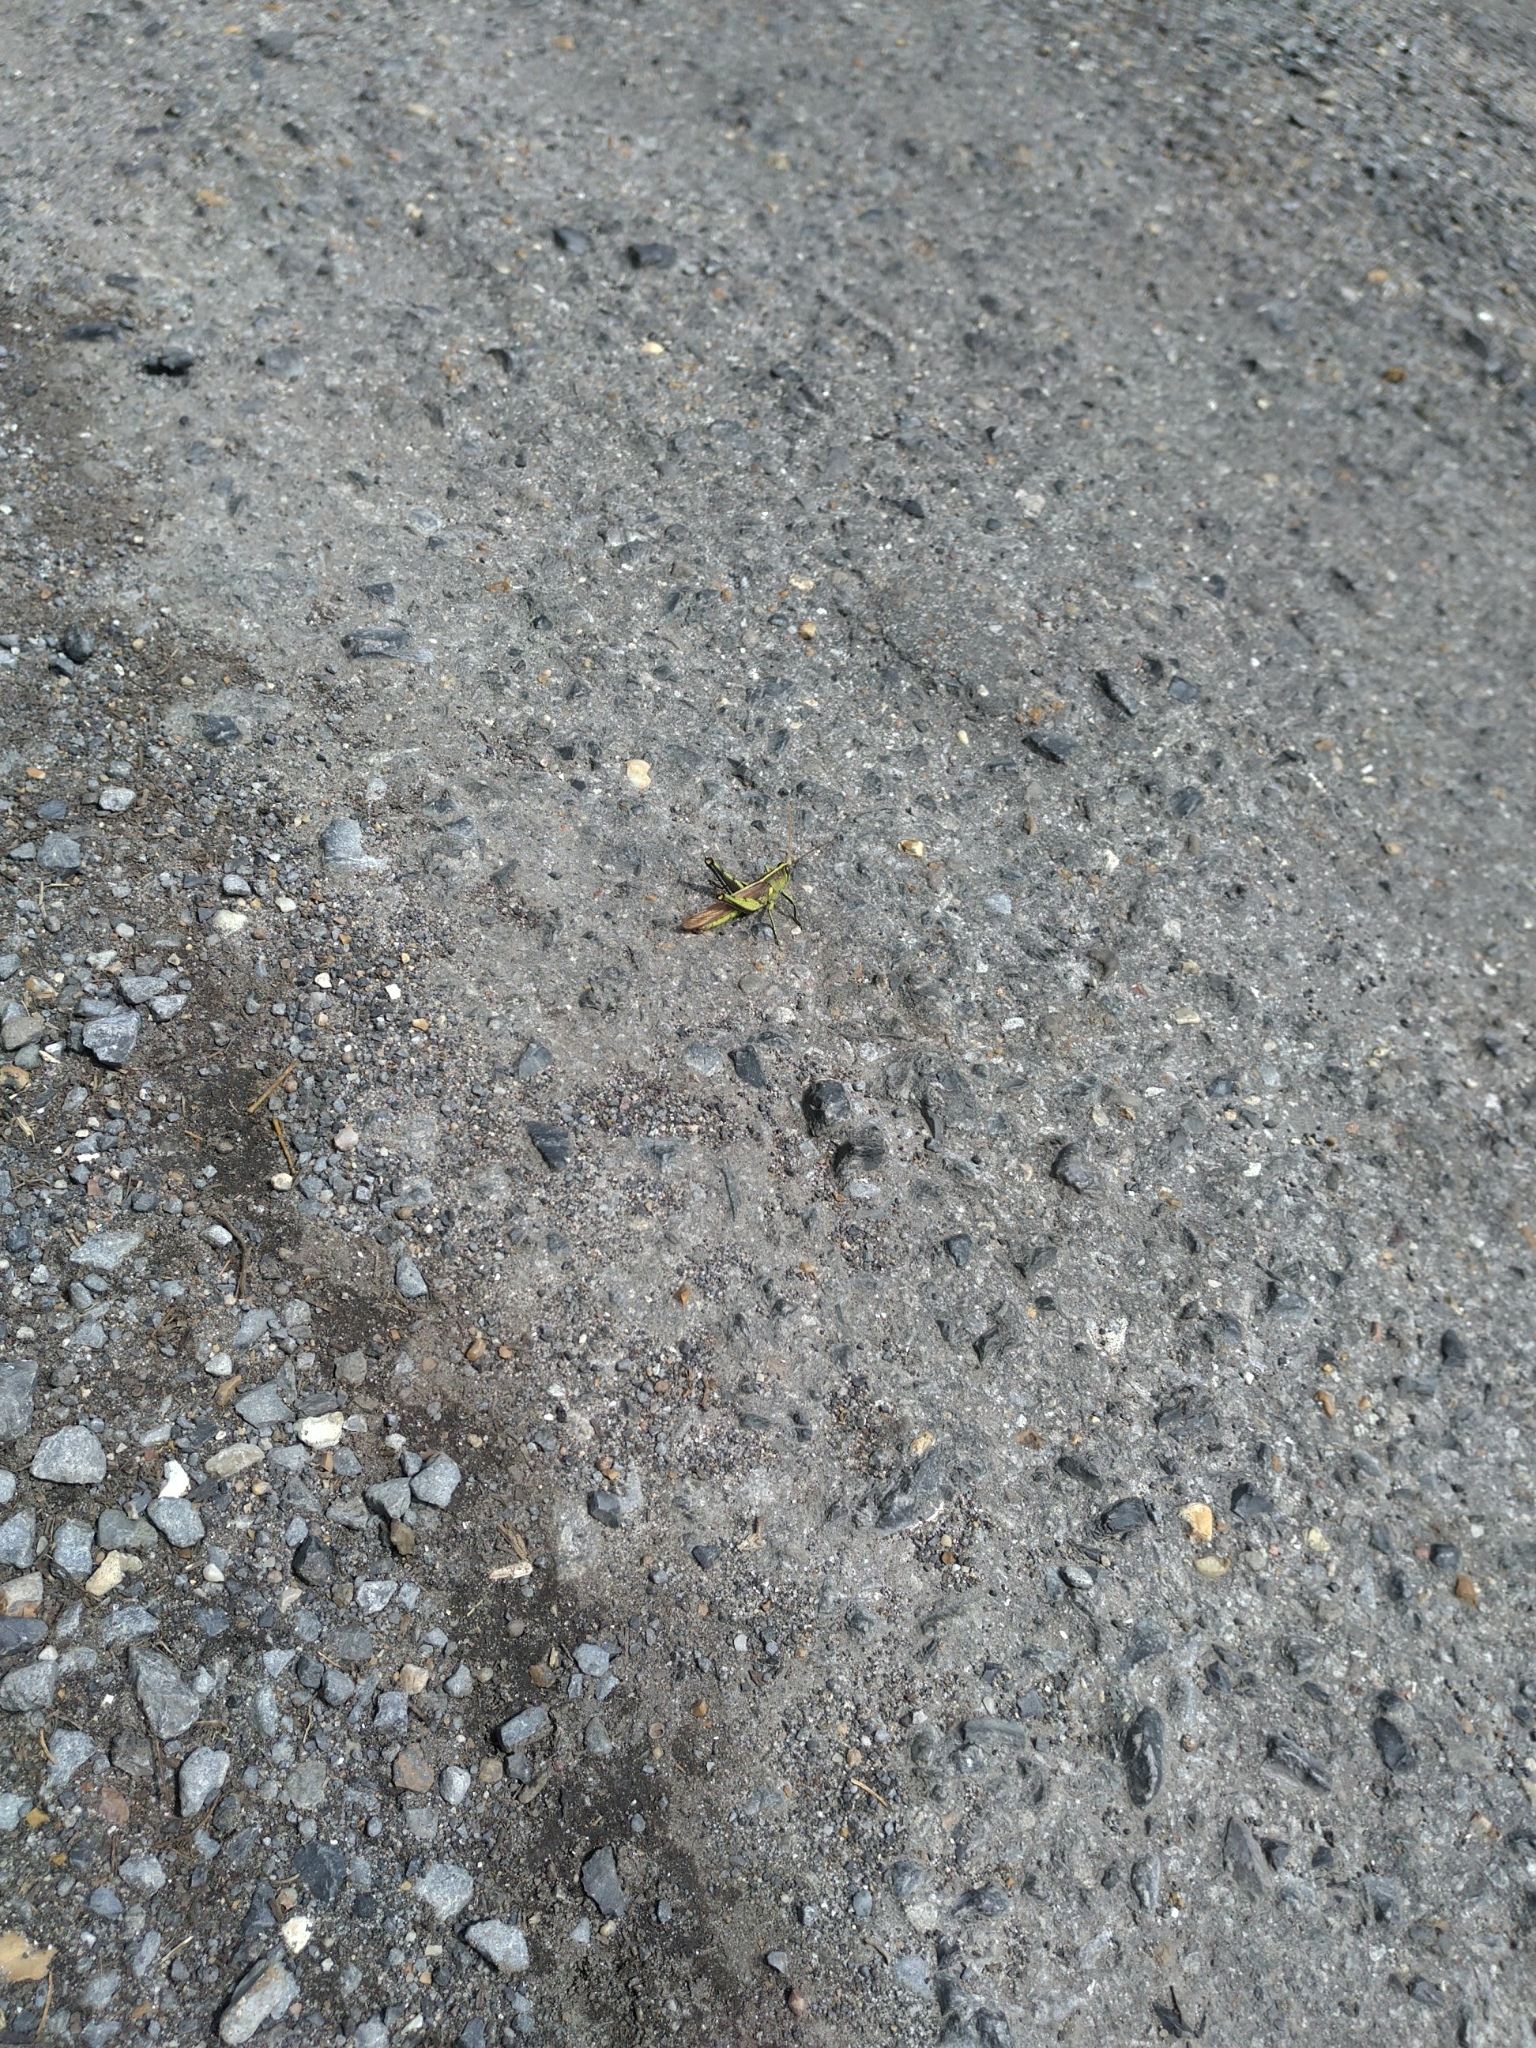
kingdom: Animalia
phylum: Arthropoda
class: Insecta
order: Orthoptera
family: Acrididae
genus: Schistocerca
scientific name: Schistocerca obscura
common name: Obscure bird grasshopper
